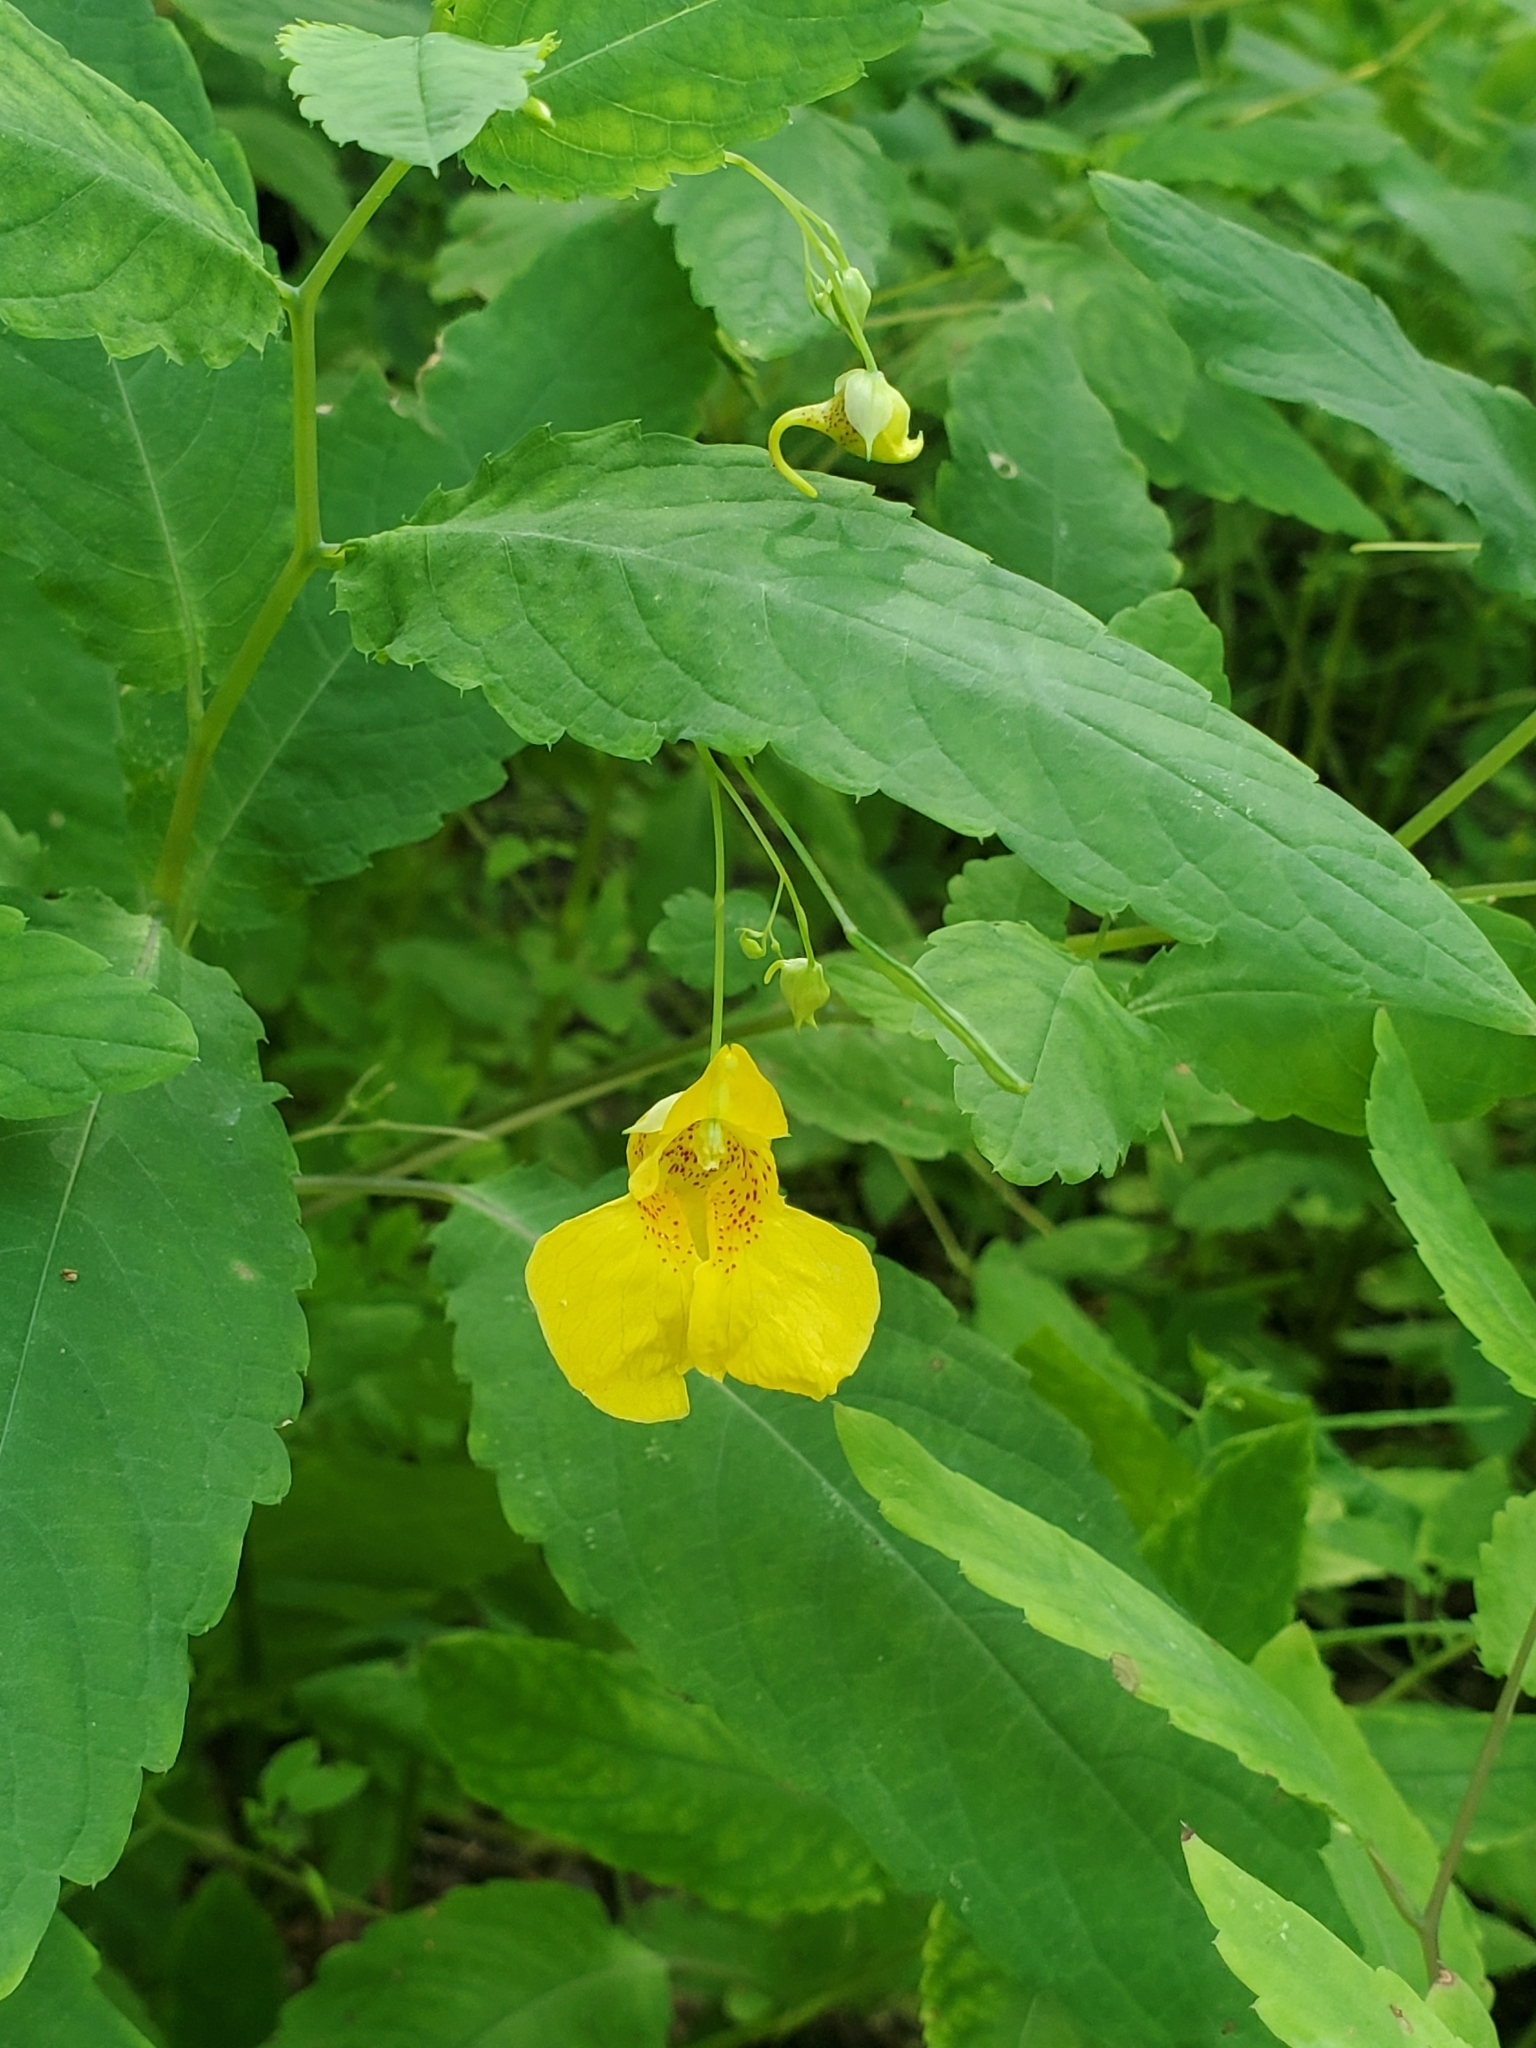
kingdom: Plantae
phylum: Tracheophyta
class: Magnoliopsida
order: Ericales
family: Balsaminaceae
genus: Impatiens
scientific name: Impatiens noli-tangere
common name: Touch-me-not balsam
